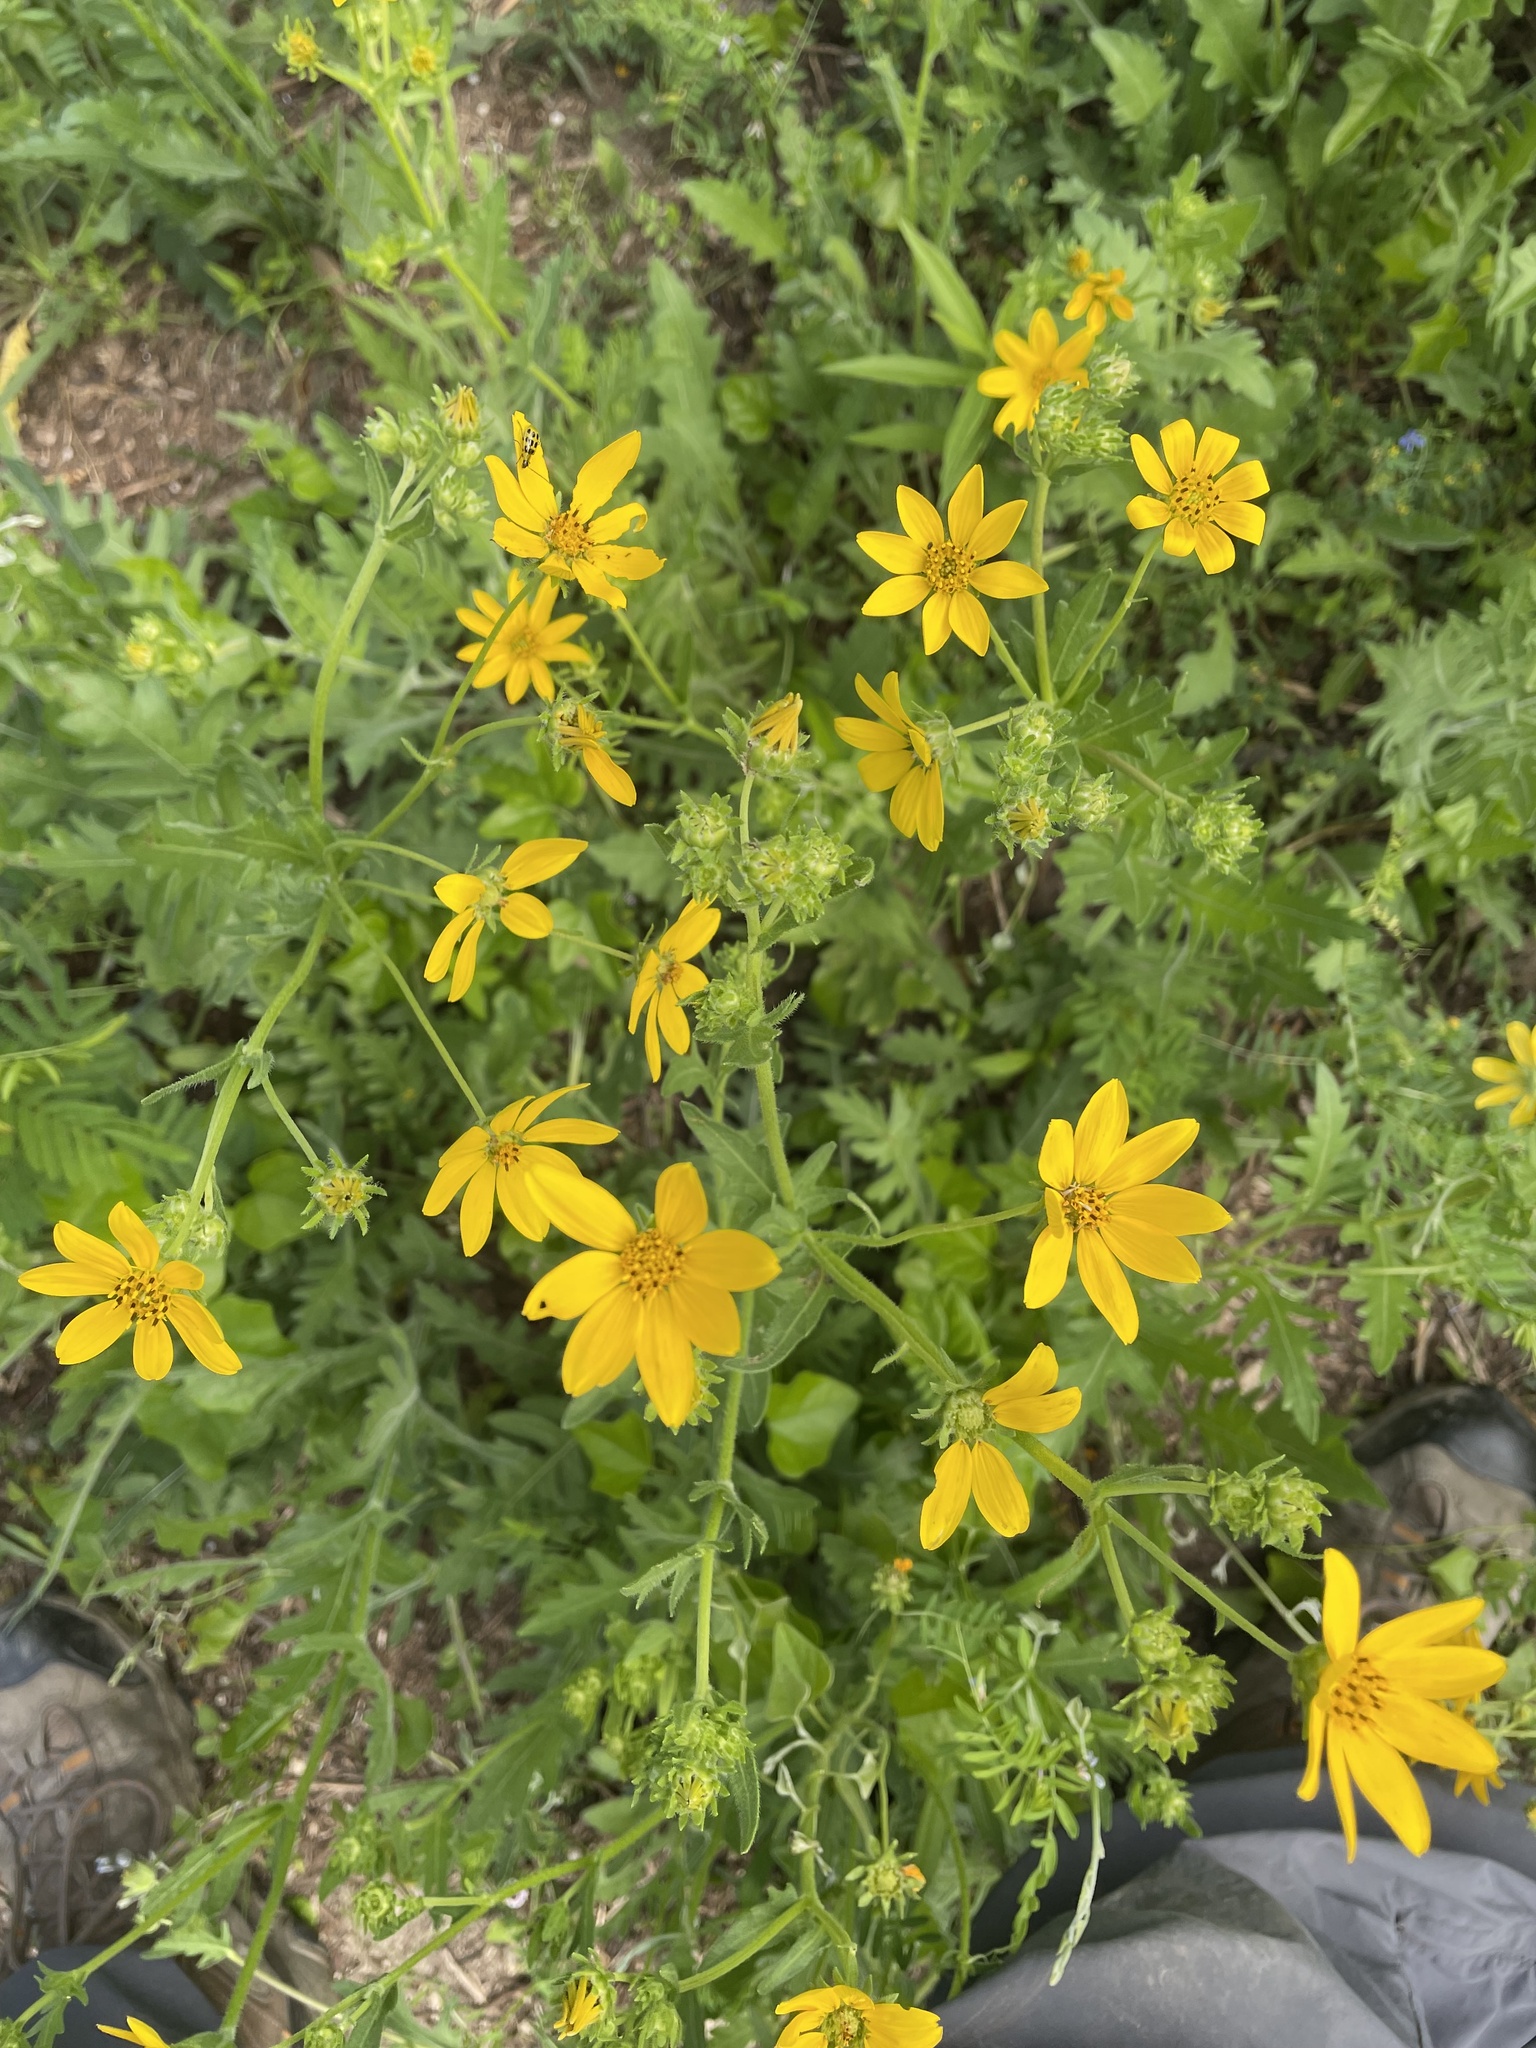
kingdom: Plantae
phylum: Tracheophyta
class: Magnoliopsida
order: Asterales
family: Asteraceae
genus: Engelmannia
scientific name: Engelmannia peristenia
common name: Engelmann's daisy
